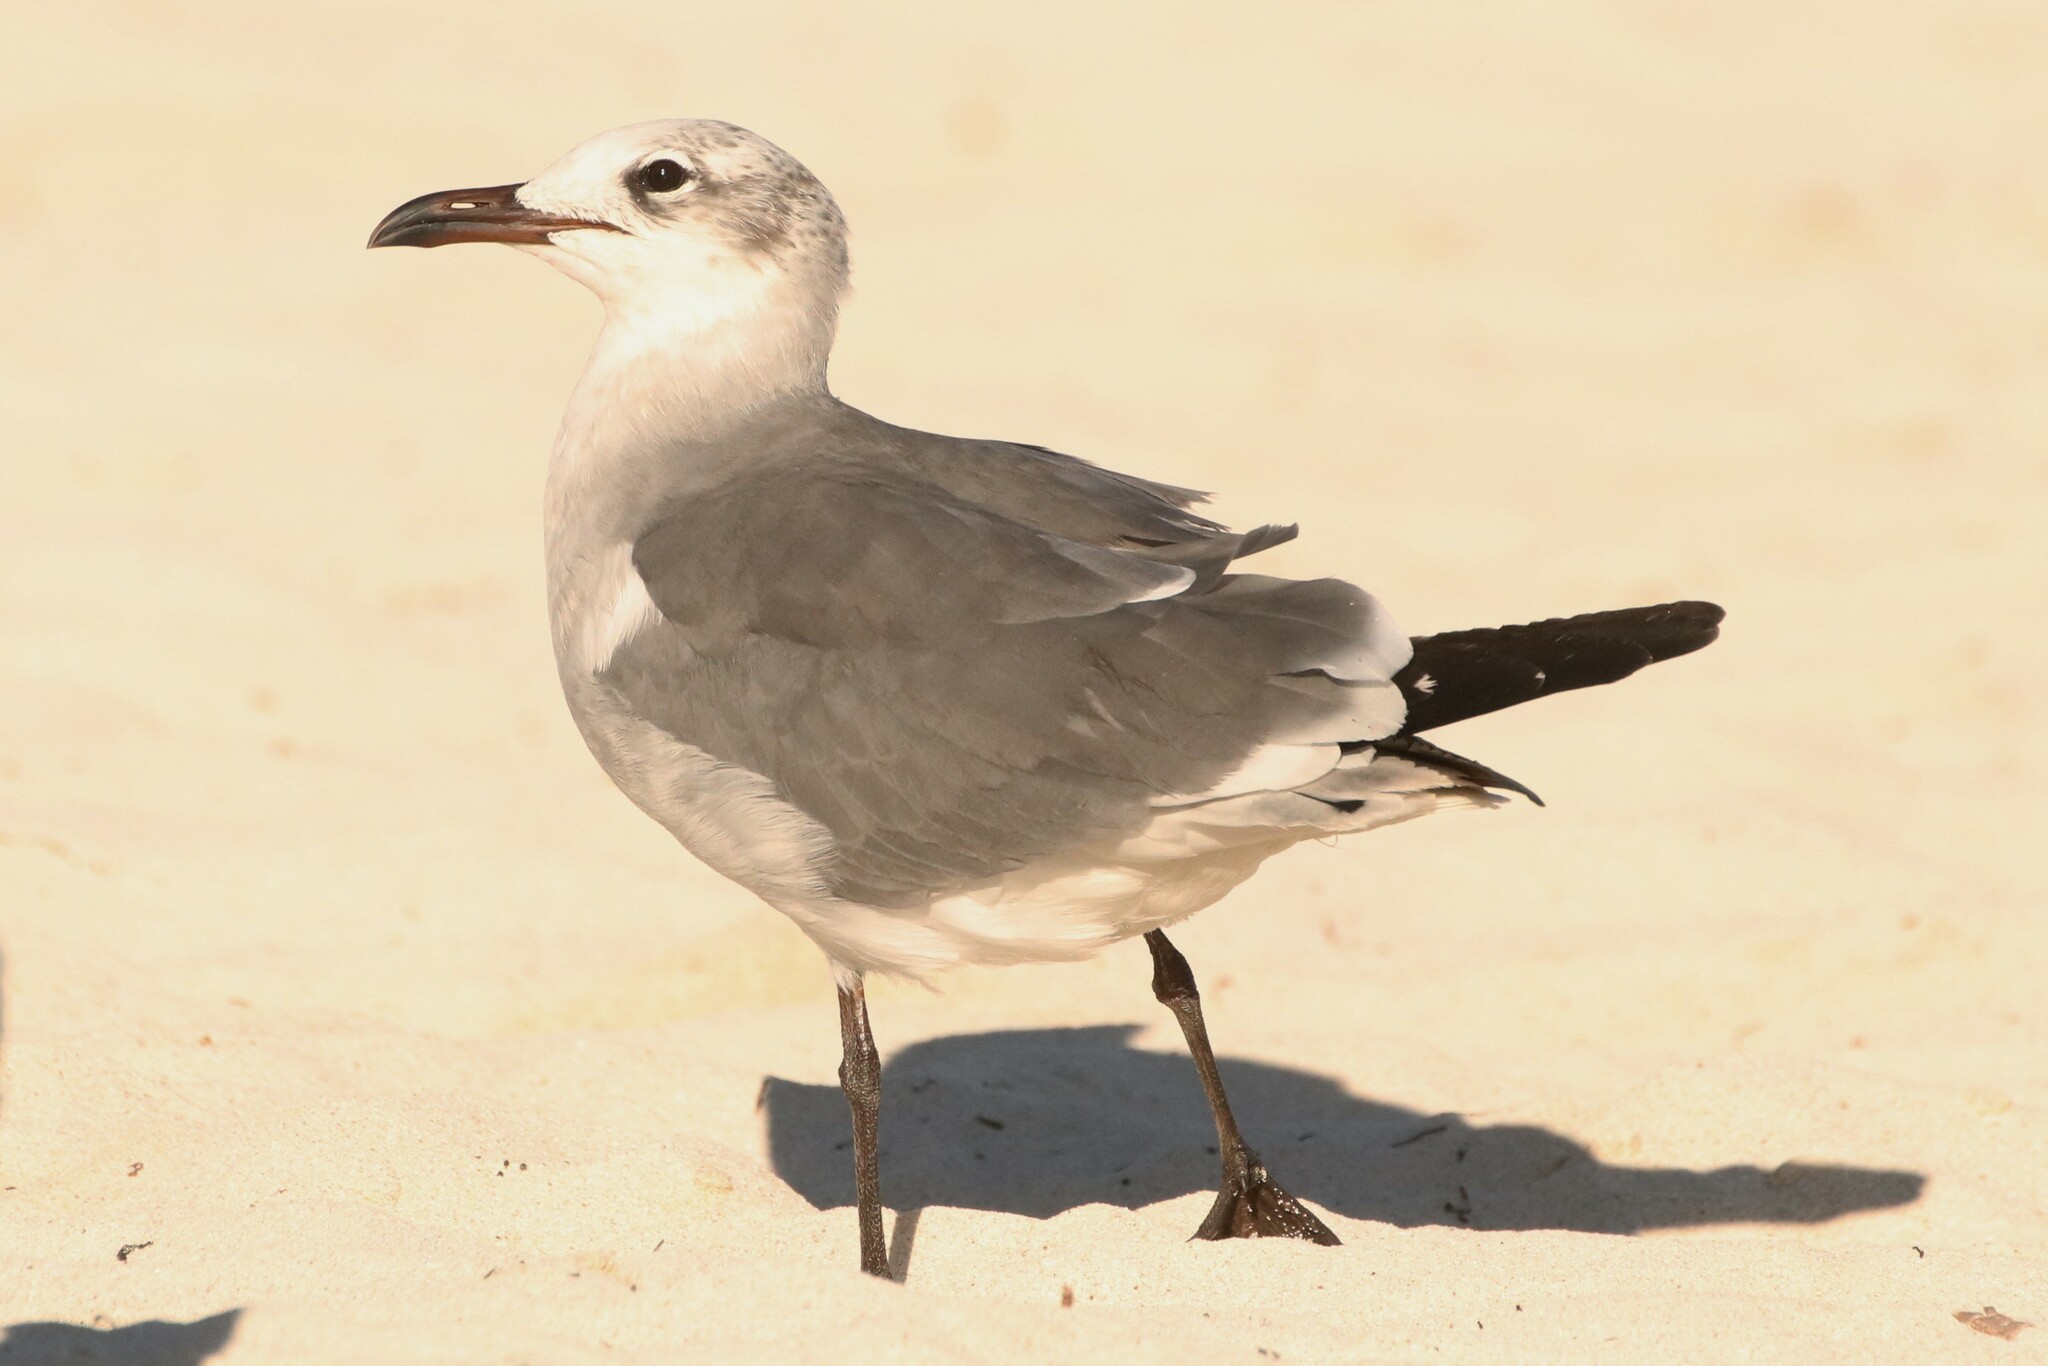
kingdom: Animalia
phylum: Chordata
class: Aves
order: Charadriiformes
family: Laridae
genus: Leucophaeus
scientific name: Leucophaeus atricilla
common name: Laughing gull
